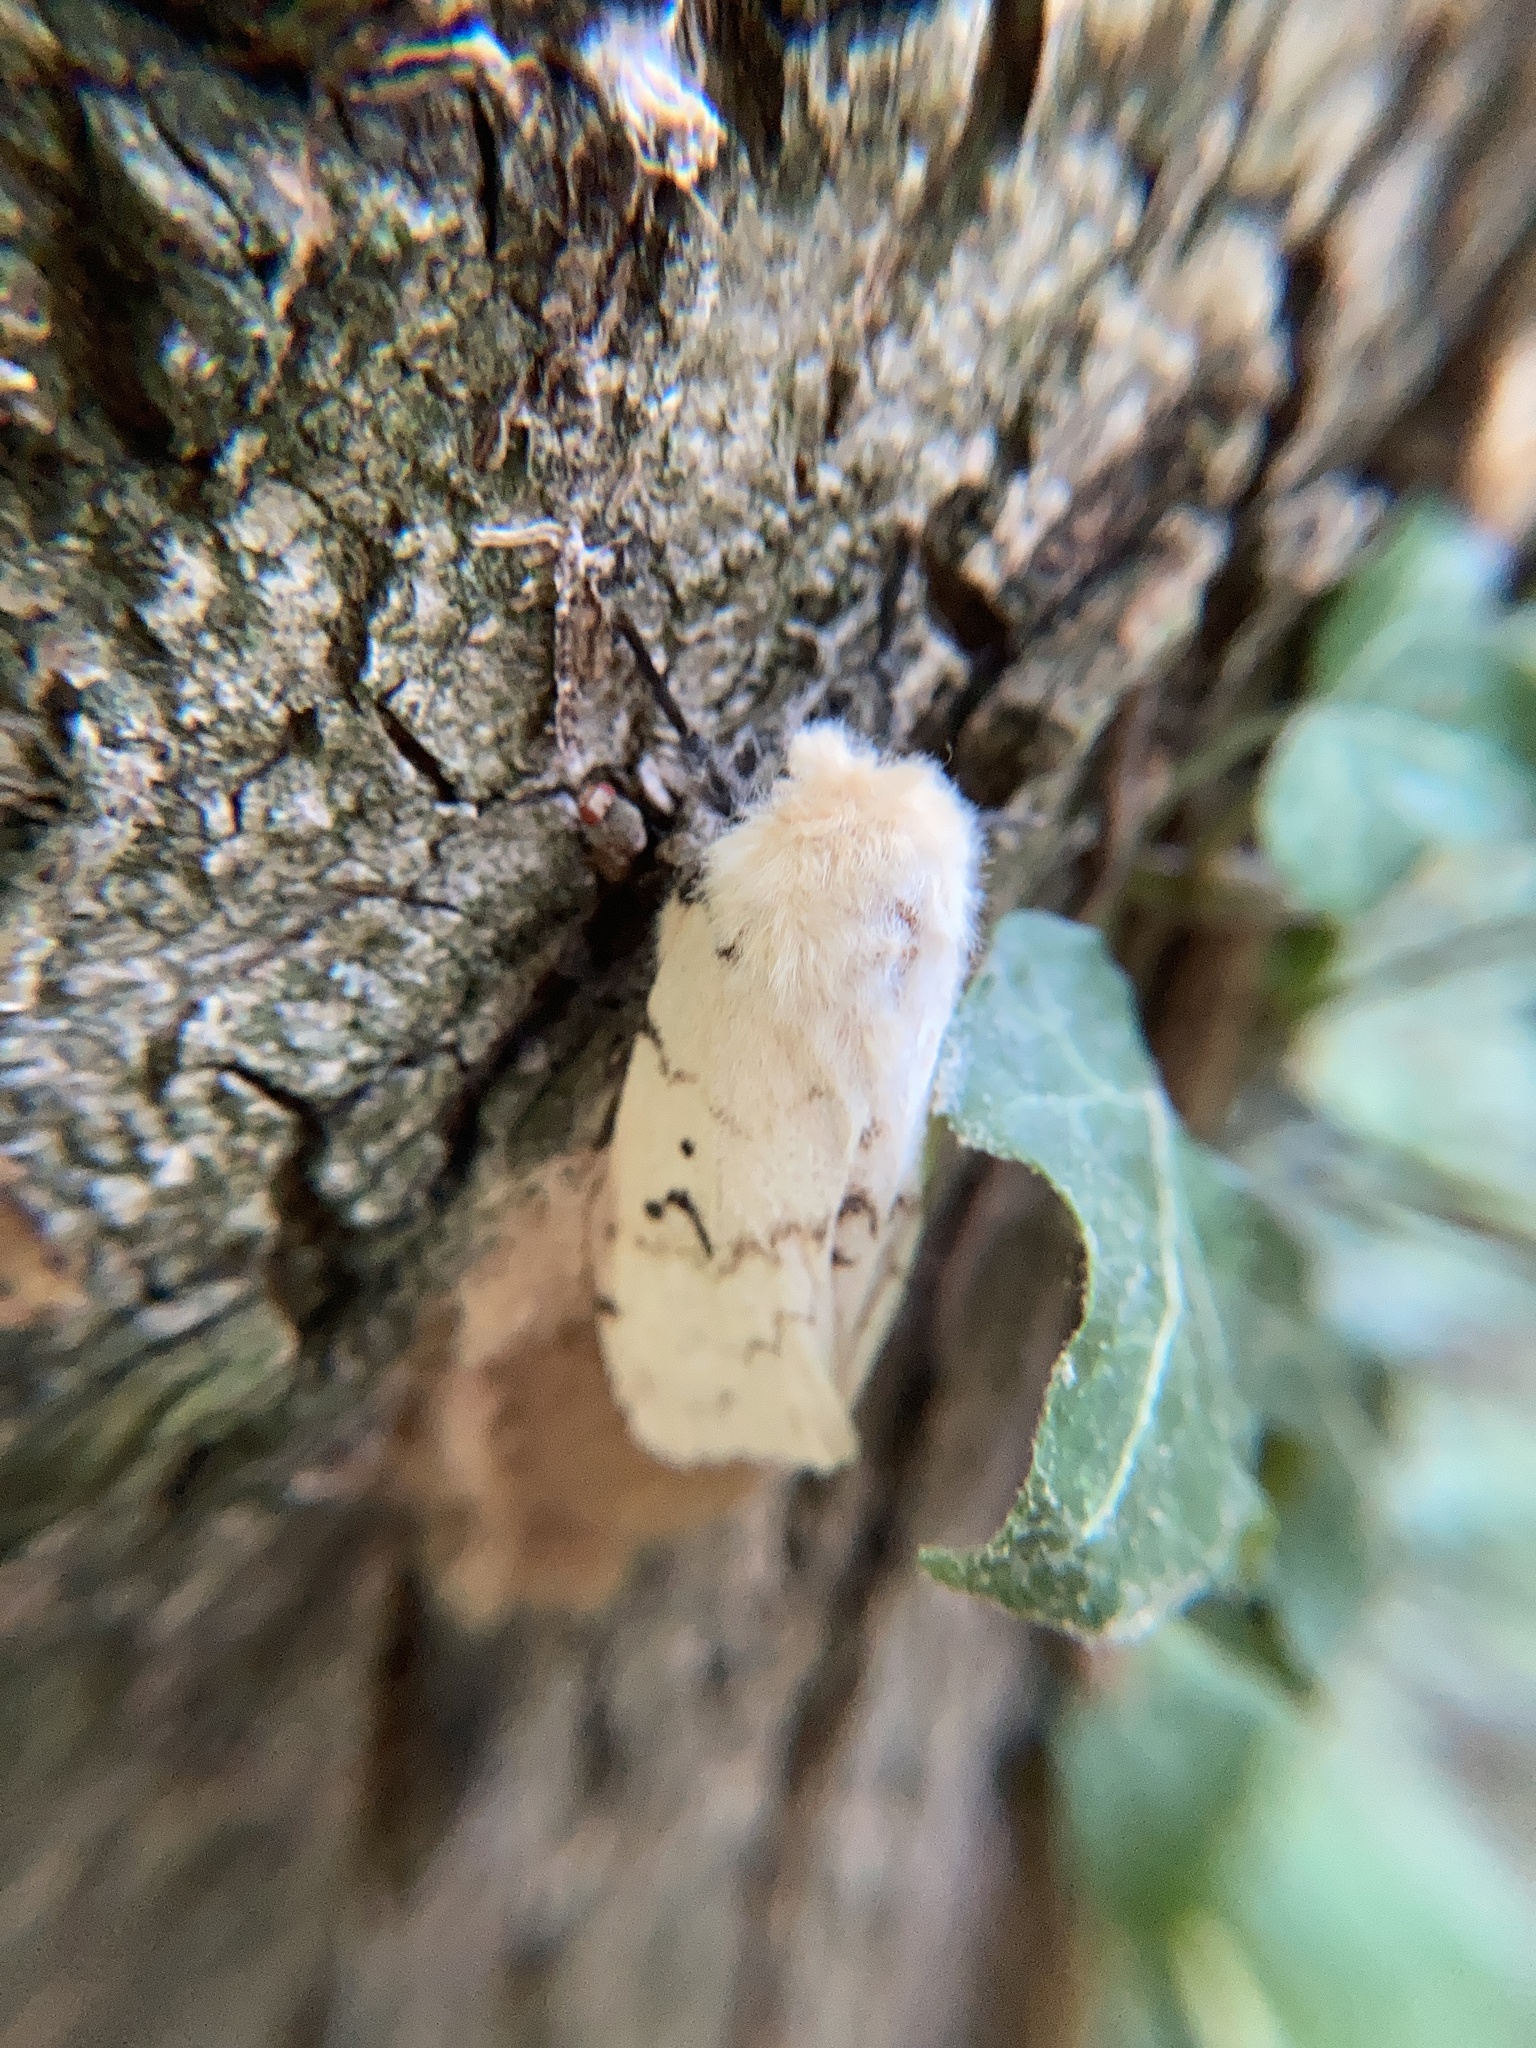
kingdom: Animalia
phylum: Arthropoda
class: Insecta
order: Lepidoptera
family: Erebidae
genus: Lymantria
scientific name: Lymantria dispar
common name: Gypsy moth
